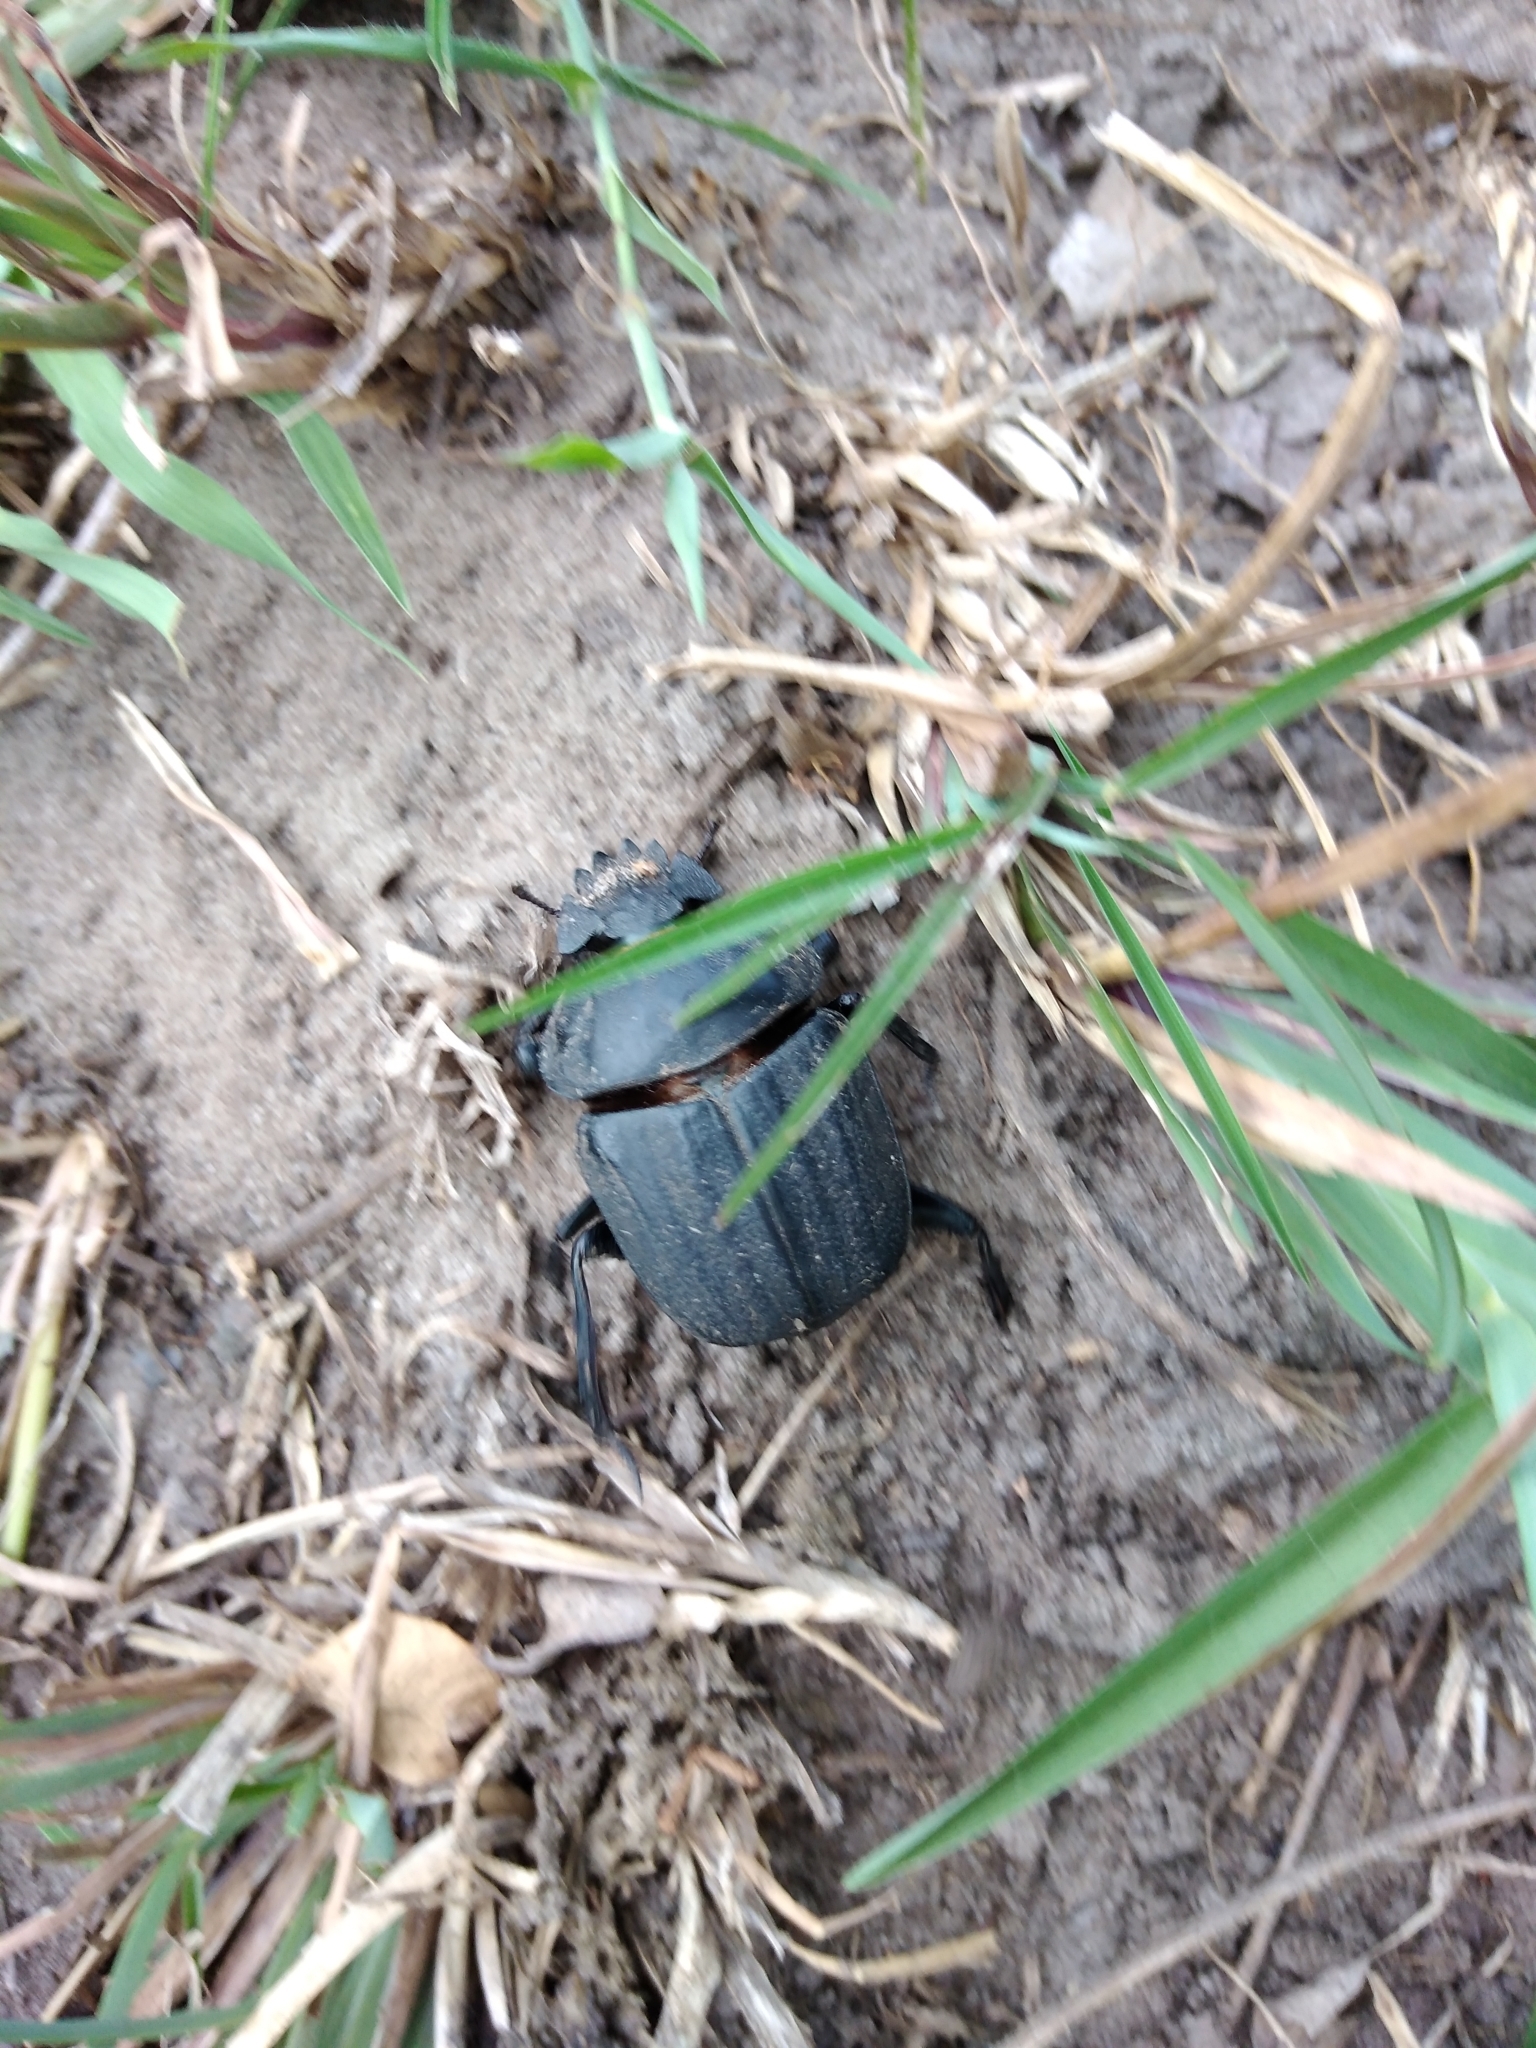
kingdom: Animalia
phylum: Arthropoda
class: Insecta
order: Coleoptera
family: Scarabaeidae
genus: Kheper
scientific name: Kheper subaeneus
